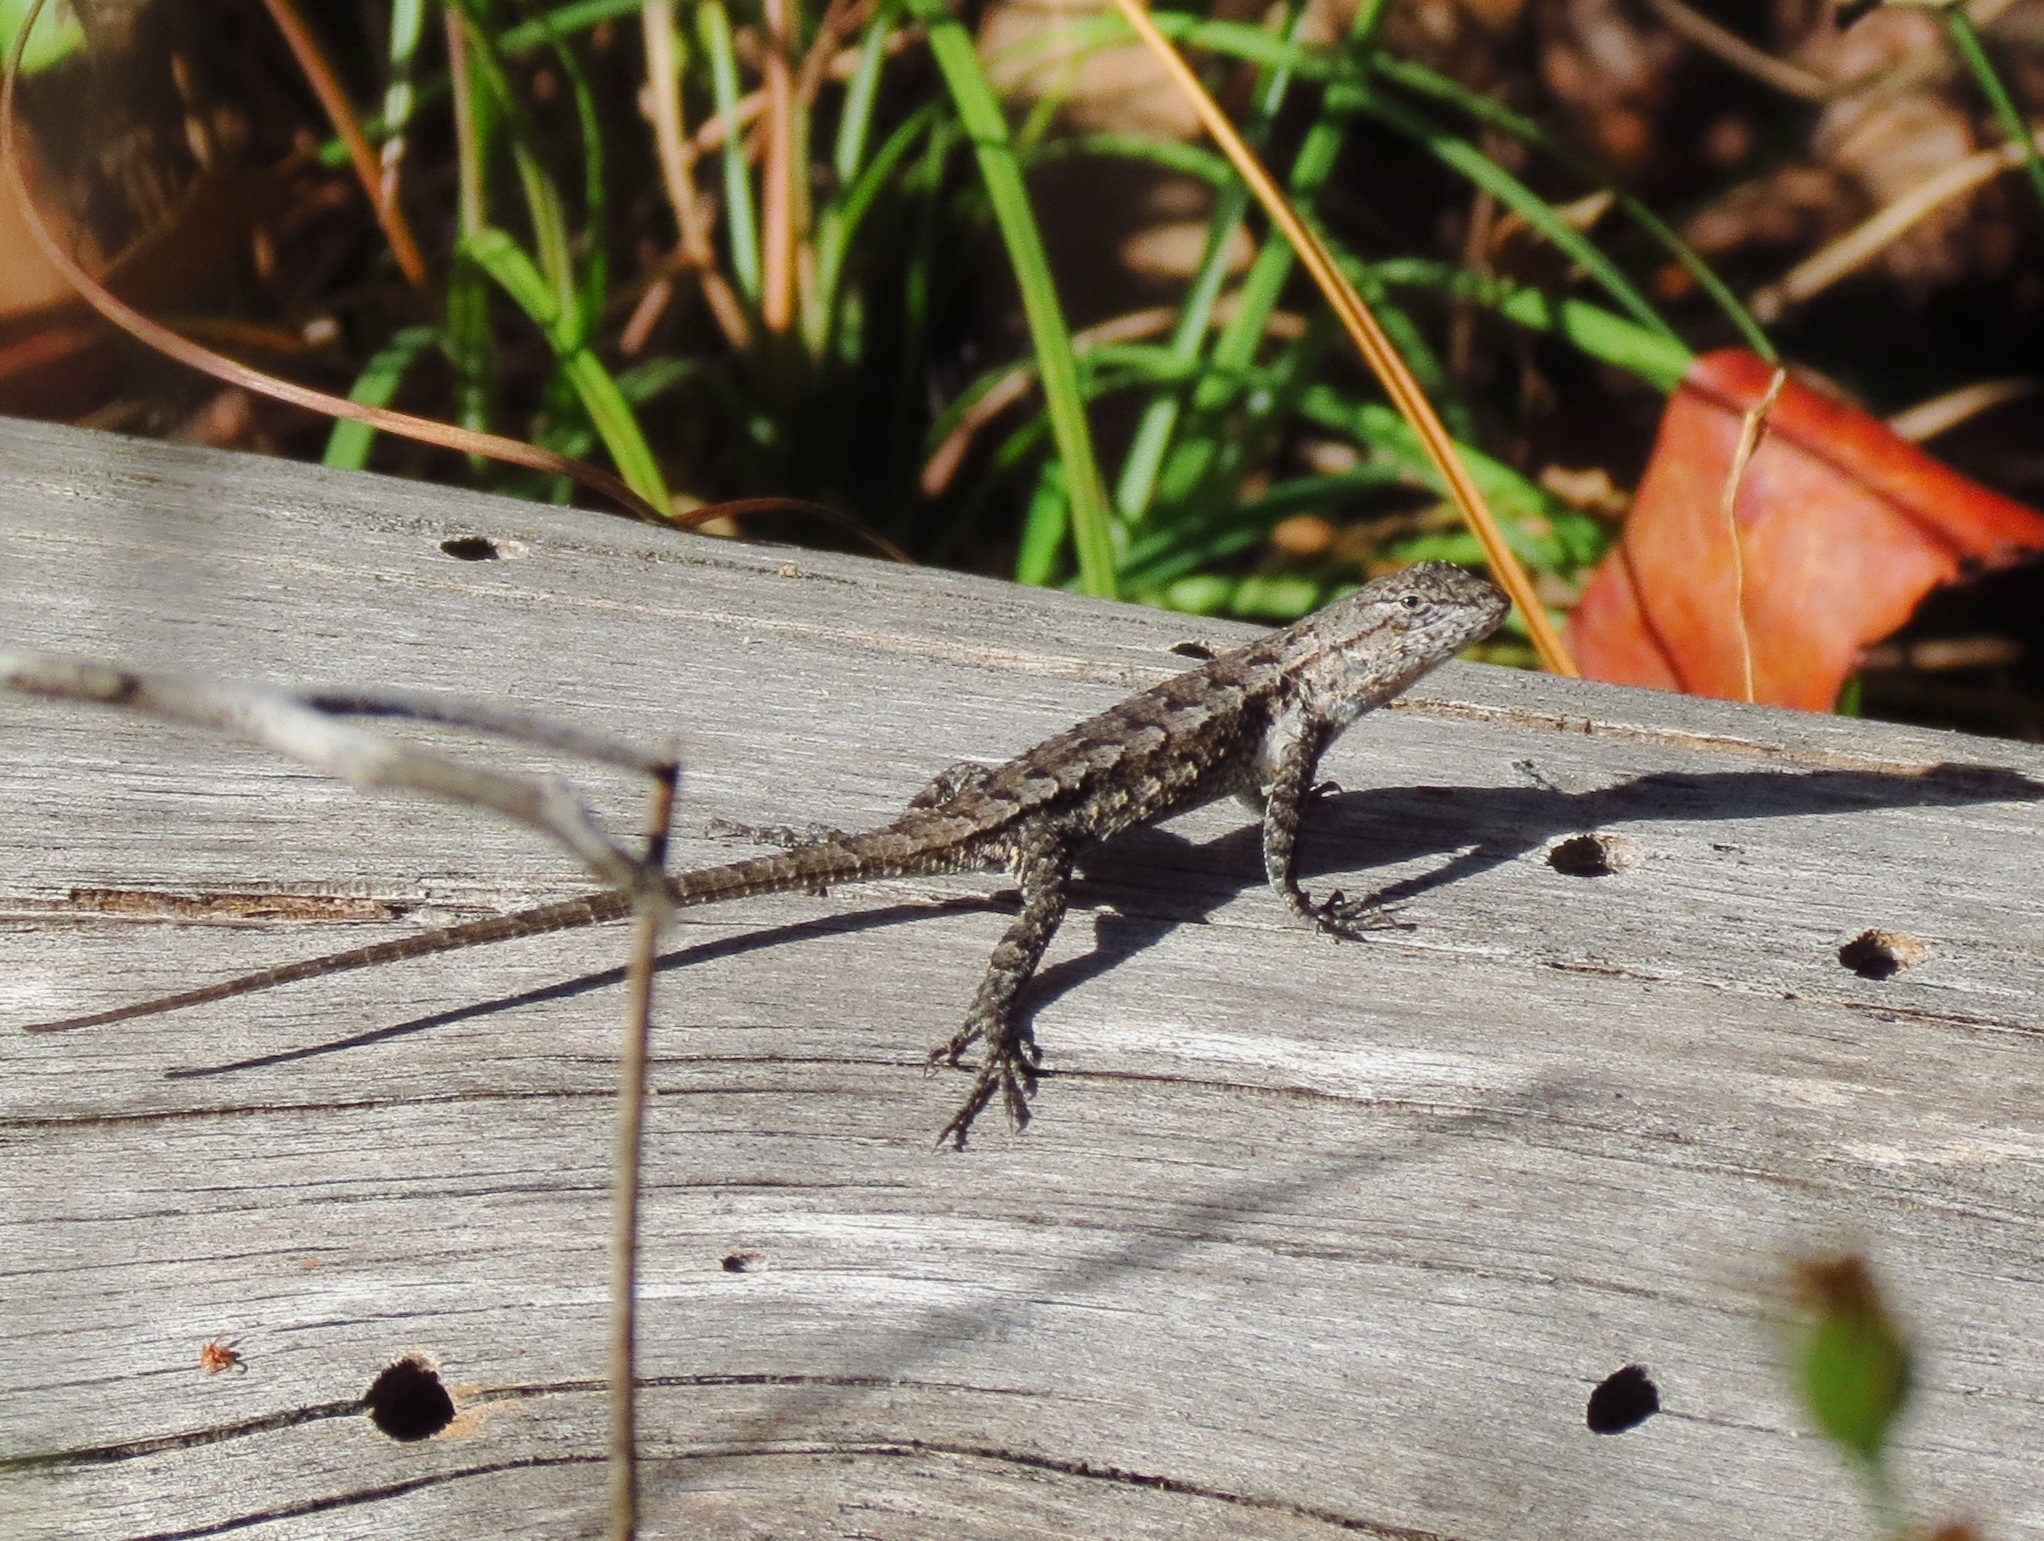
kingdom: Animalia
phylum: Chordata
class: Squamata
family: Phrynosomatidae
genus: Sceloporus
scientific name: Sceloporus consobrinus
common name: Southern prairie lizard
